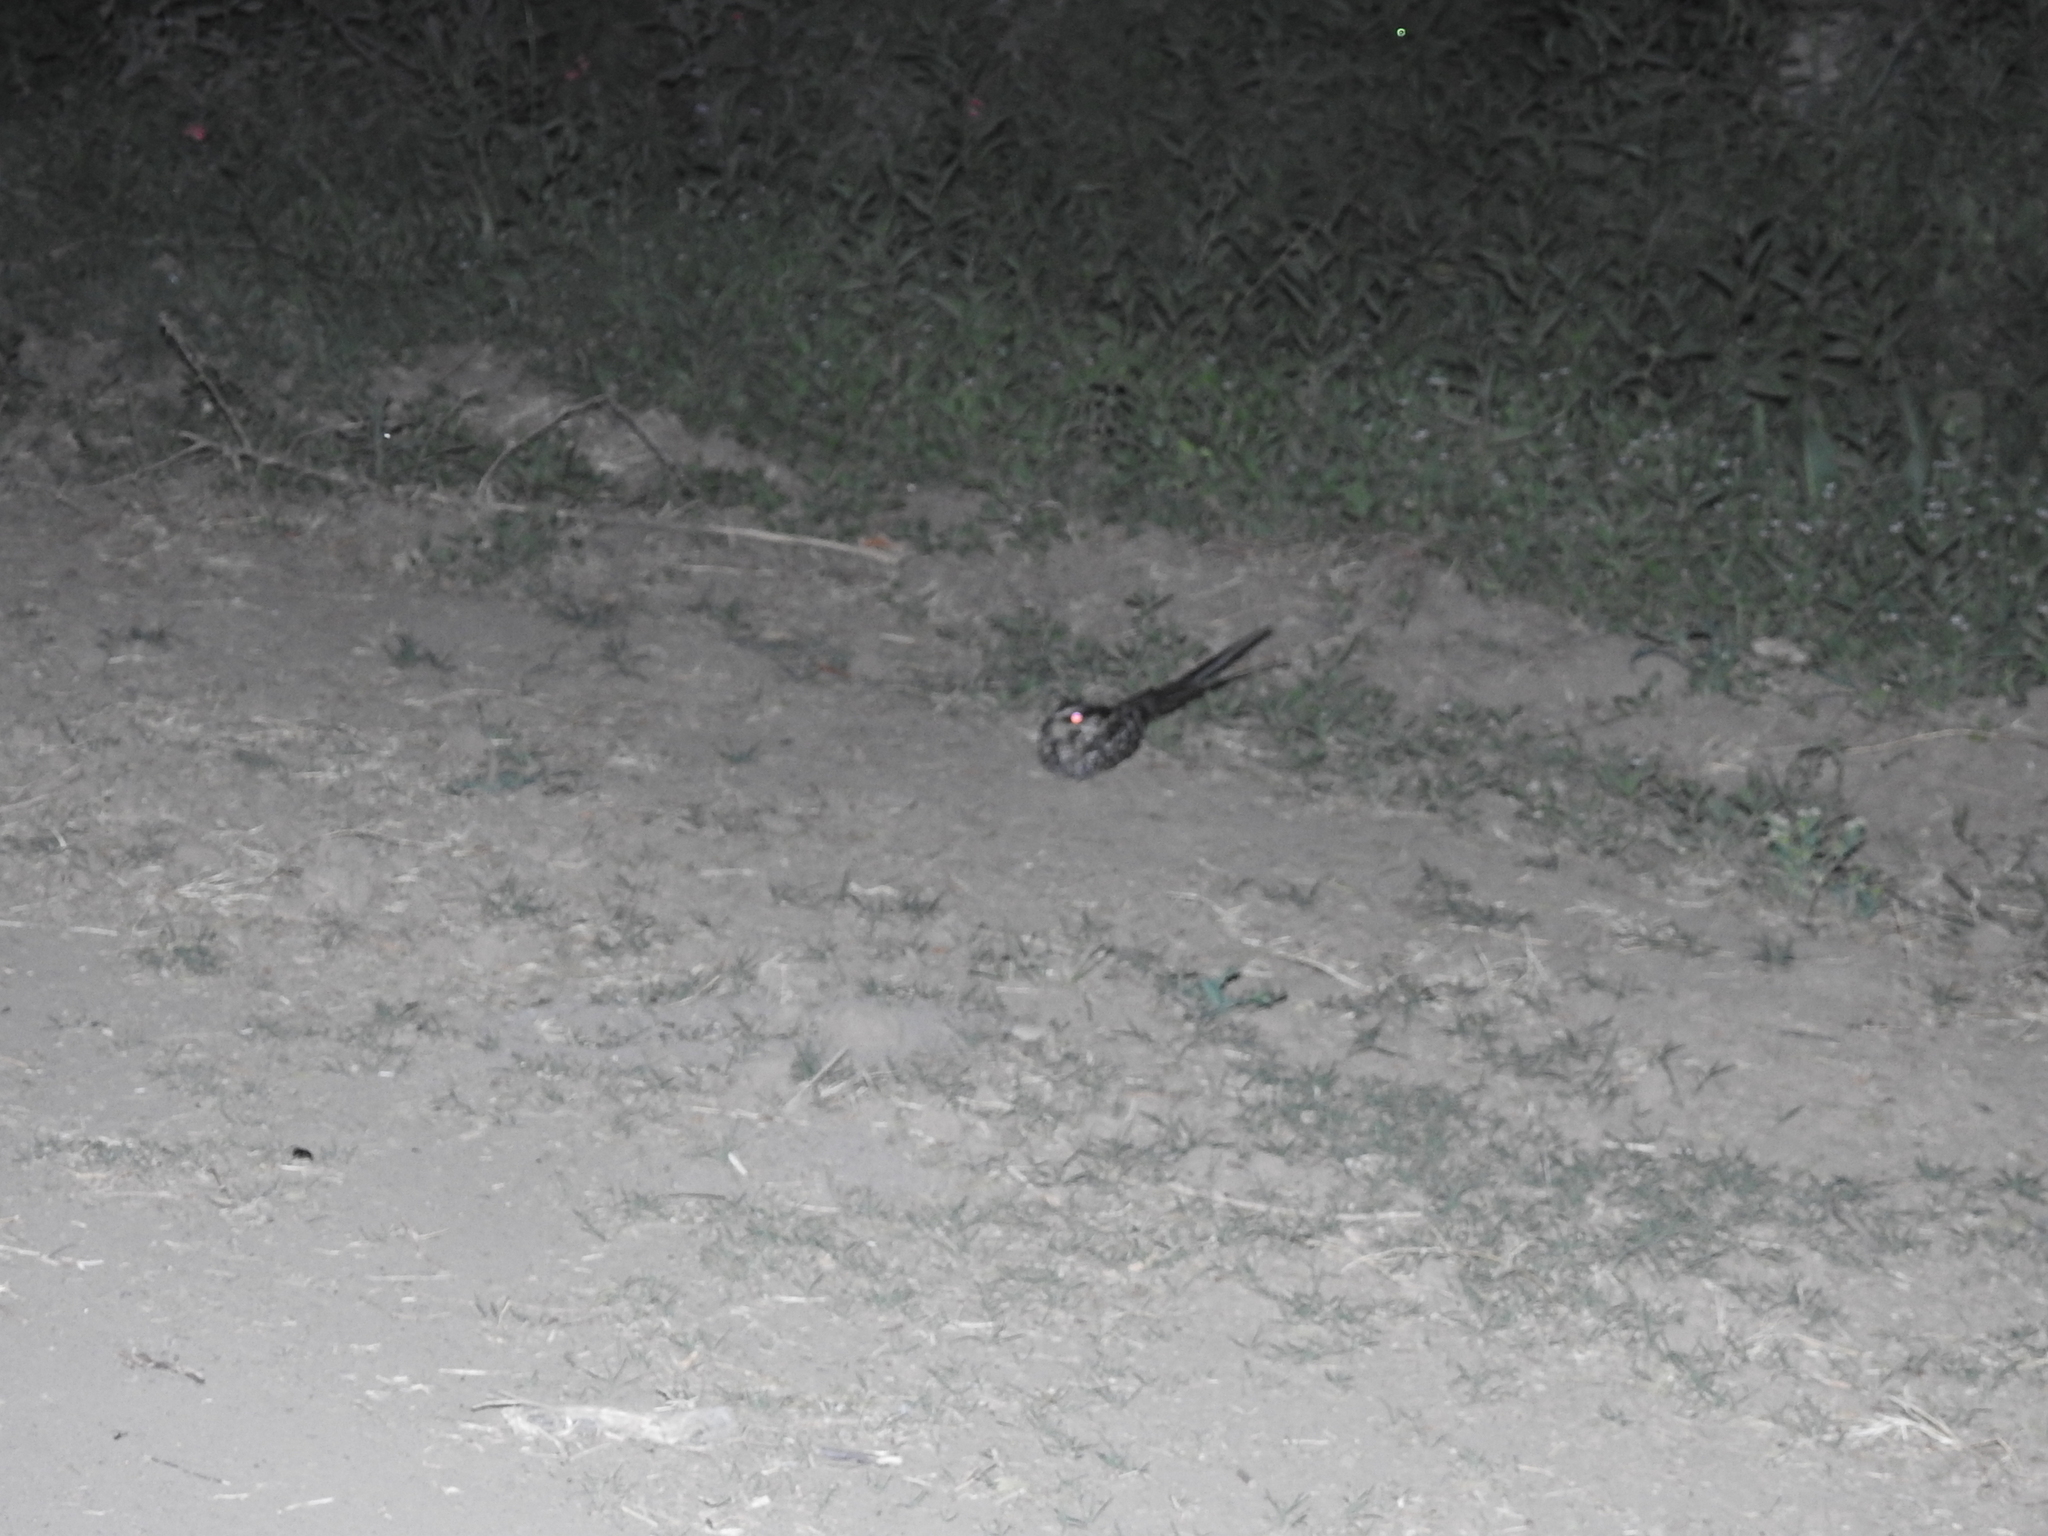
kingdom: Animalia
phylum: Chordata
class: Aves
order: Caprimulgiformes
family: Caprimulgidae
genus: Hydropsalis
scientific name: Hydropsalis torquata
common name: Scissor-tailed nightjar
